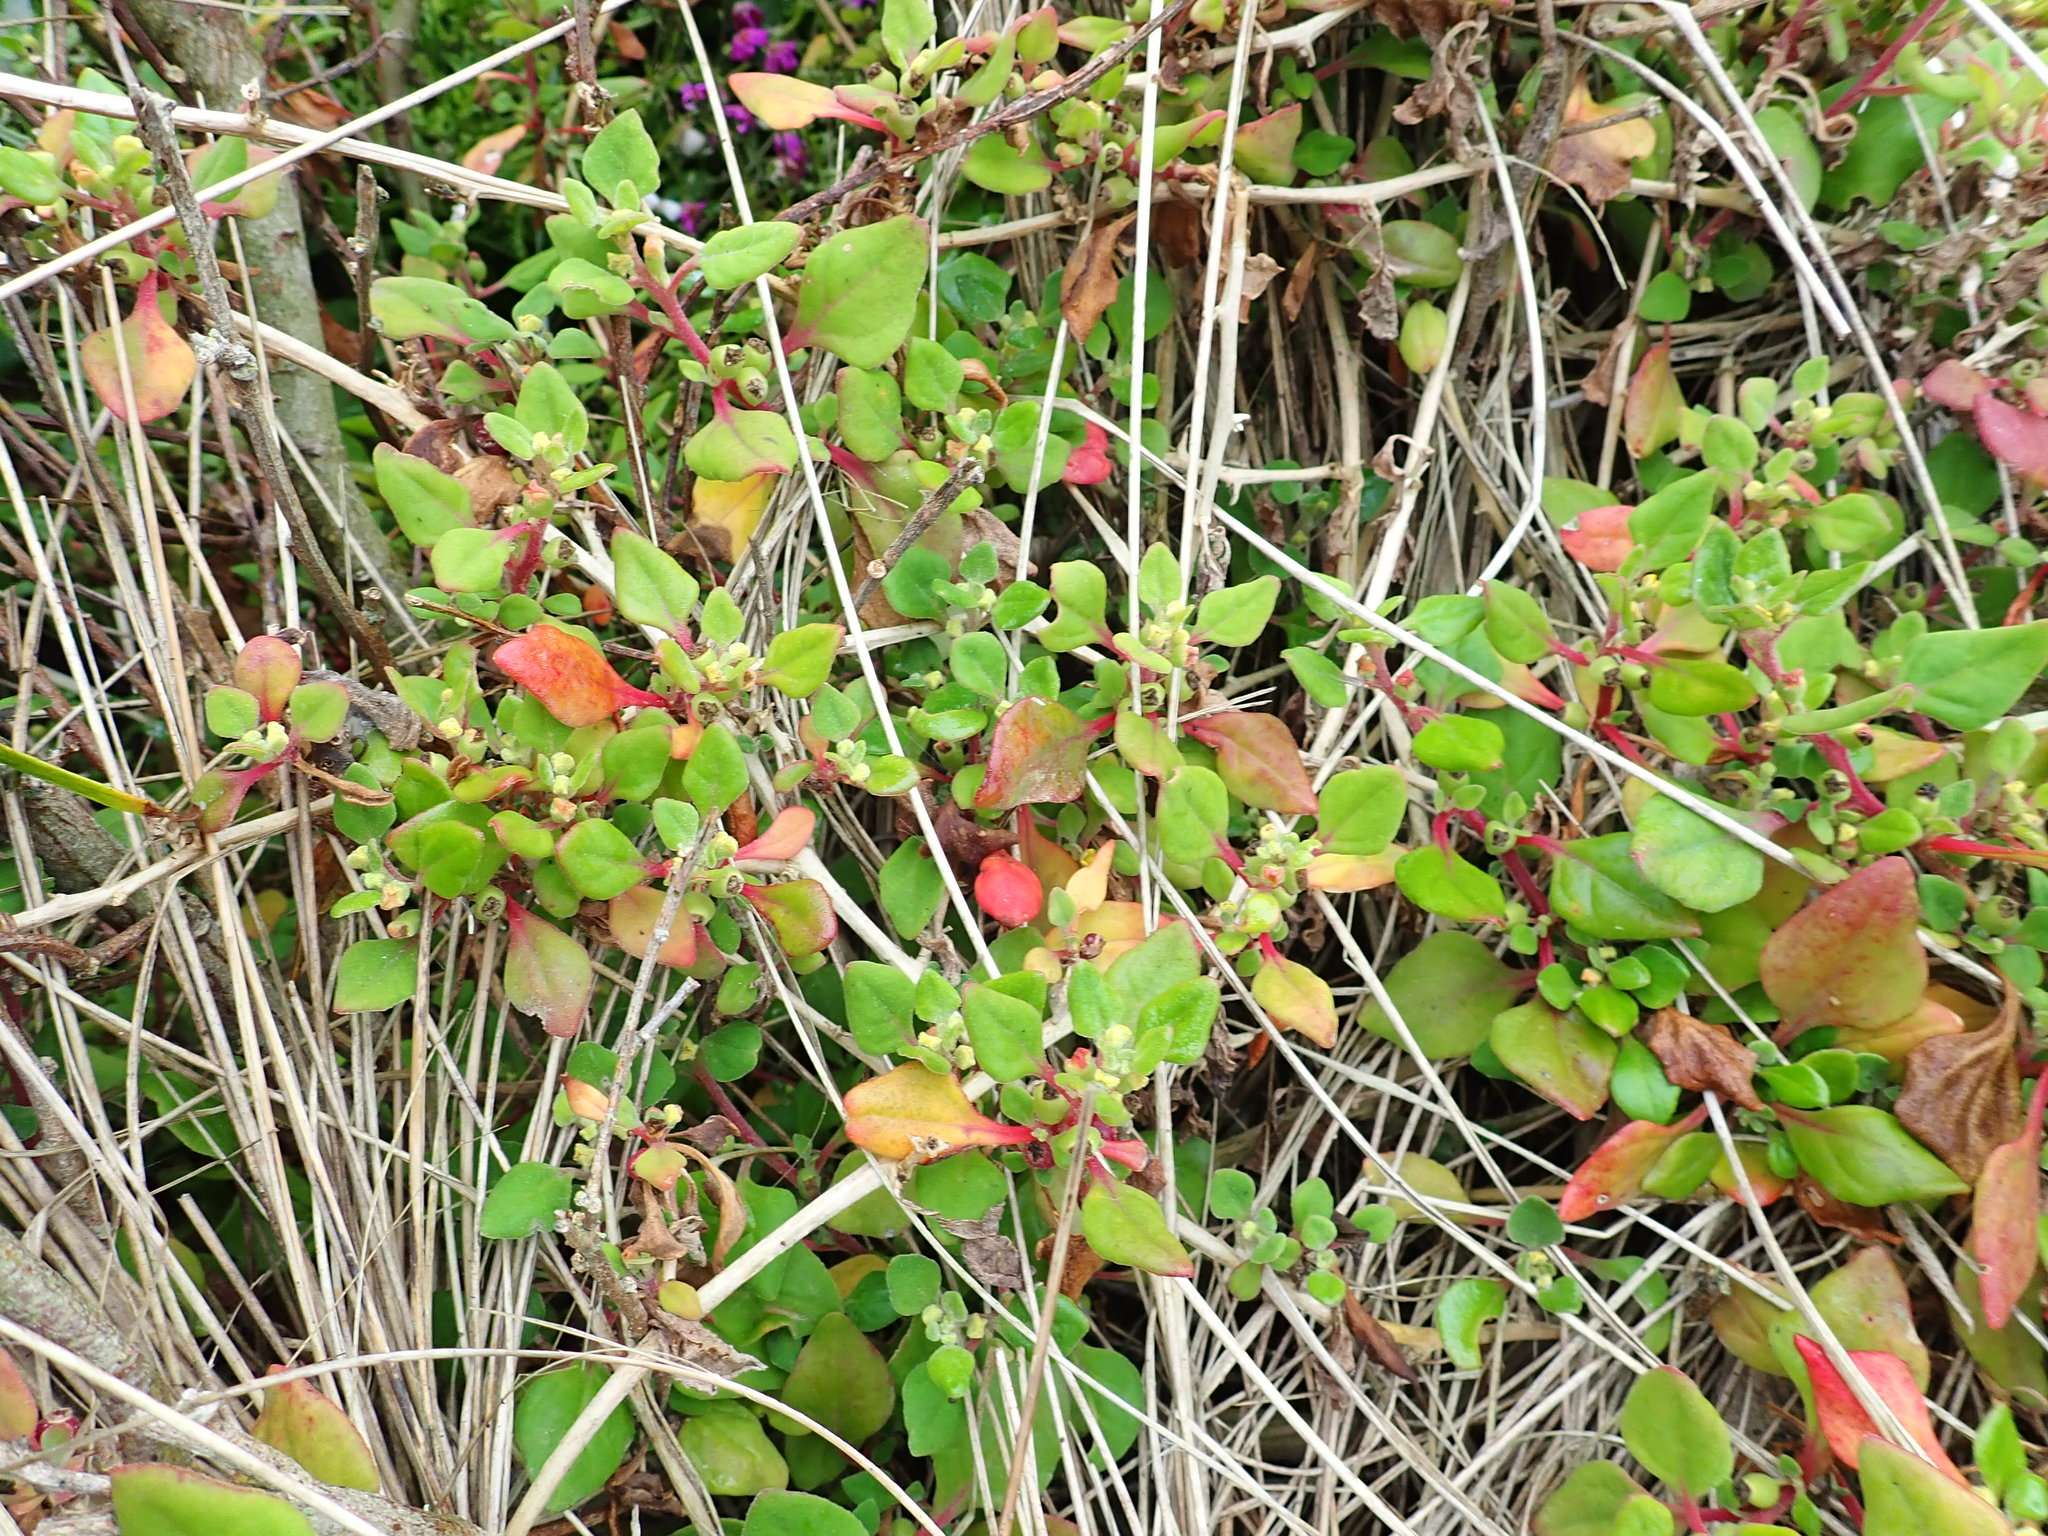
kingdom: Plantae
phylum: Tracheophyta
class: Magnoliopsida
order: Caryophyllales
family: Aizoaceae
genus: Tetragonia
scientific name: Tetragonia implexicoma
